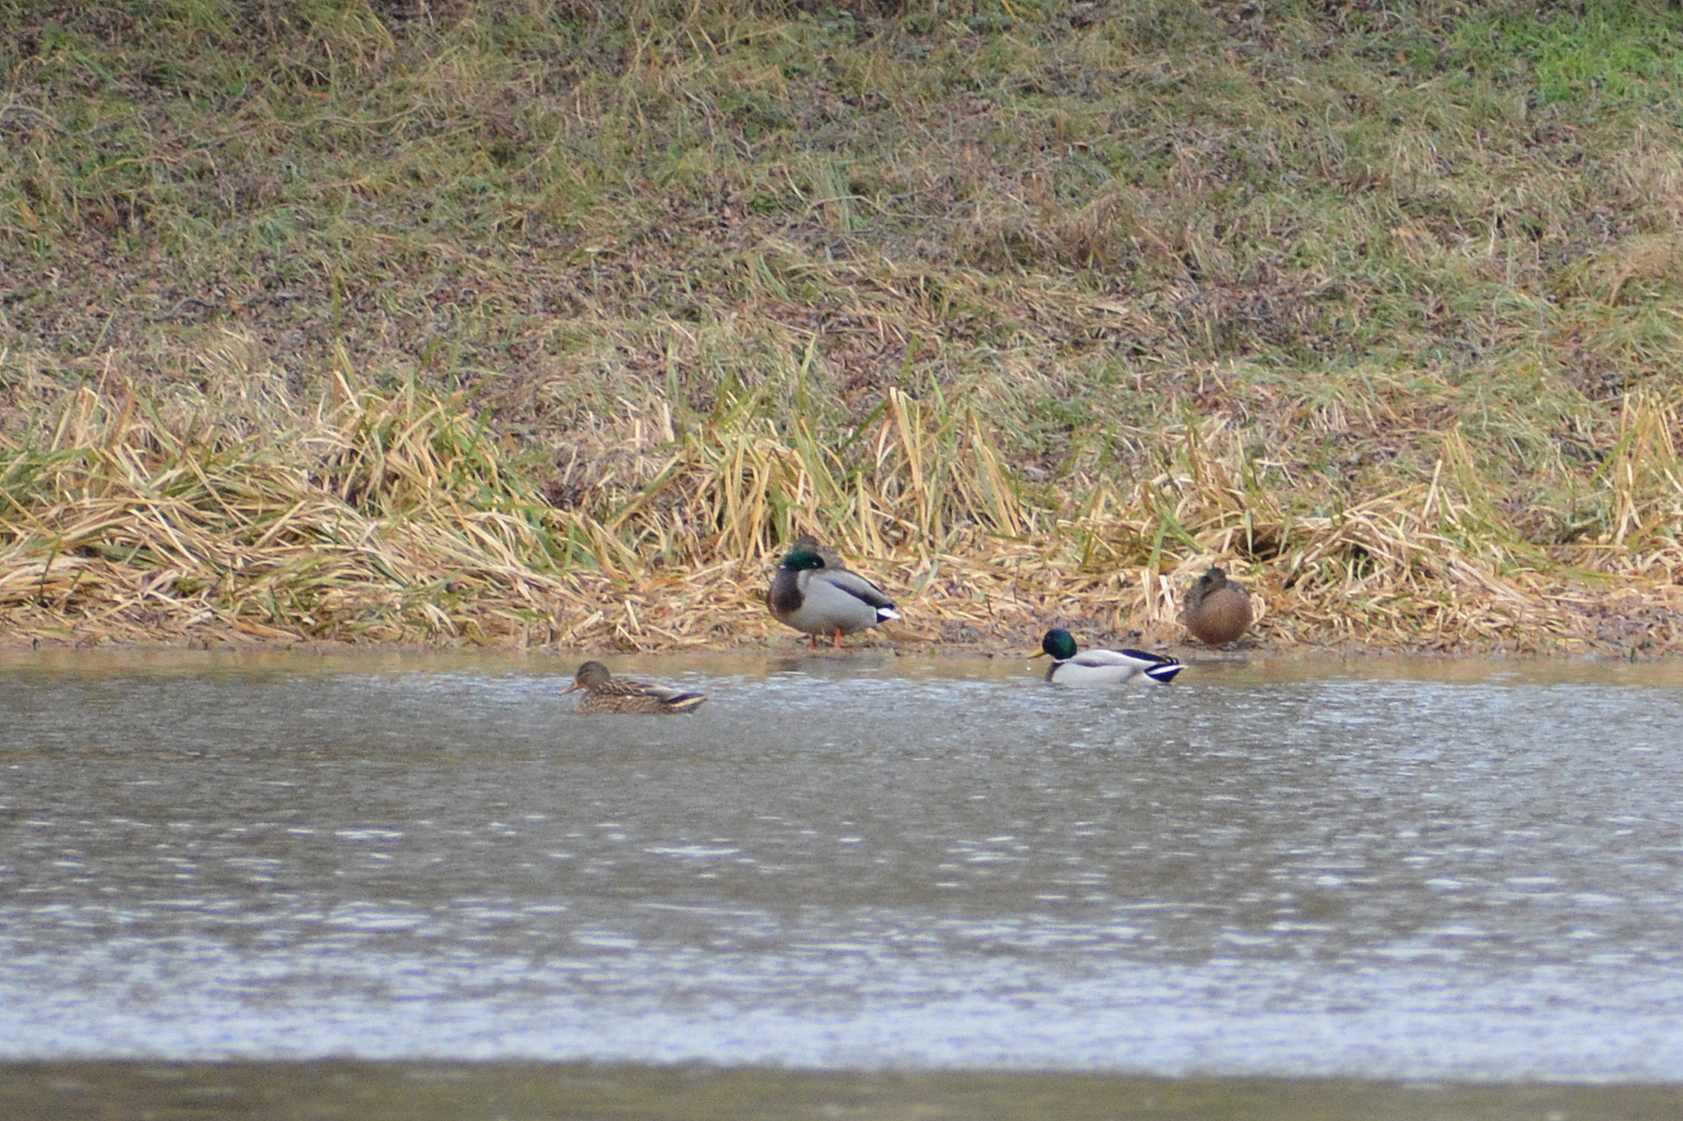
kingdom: Animalia
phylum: Chordata
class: Aves
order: Anseriformes
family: Anatidae
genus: Anas
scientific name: Anas platyrhynchos
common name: Mallard
